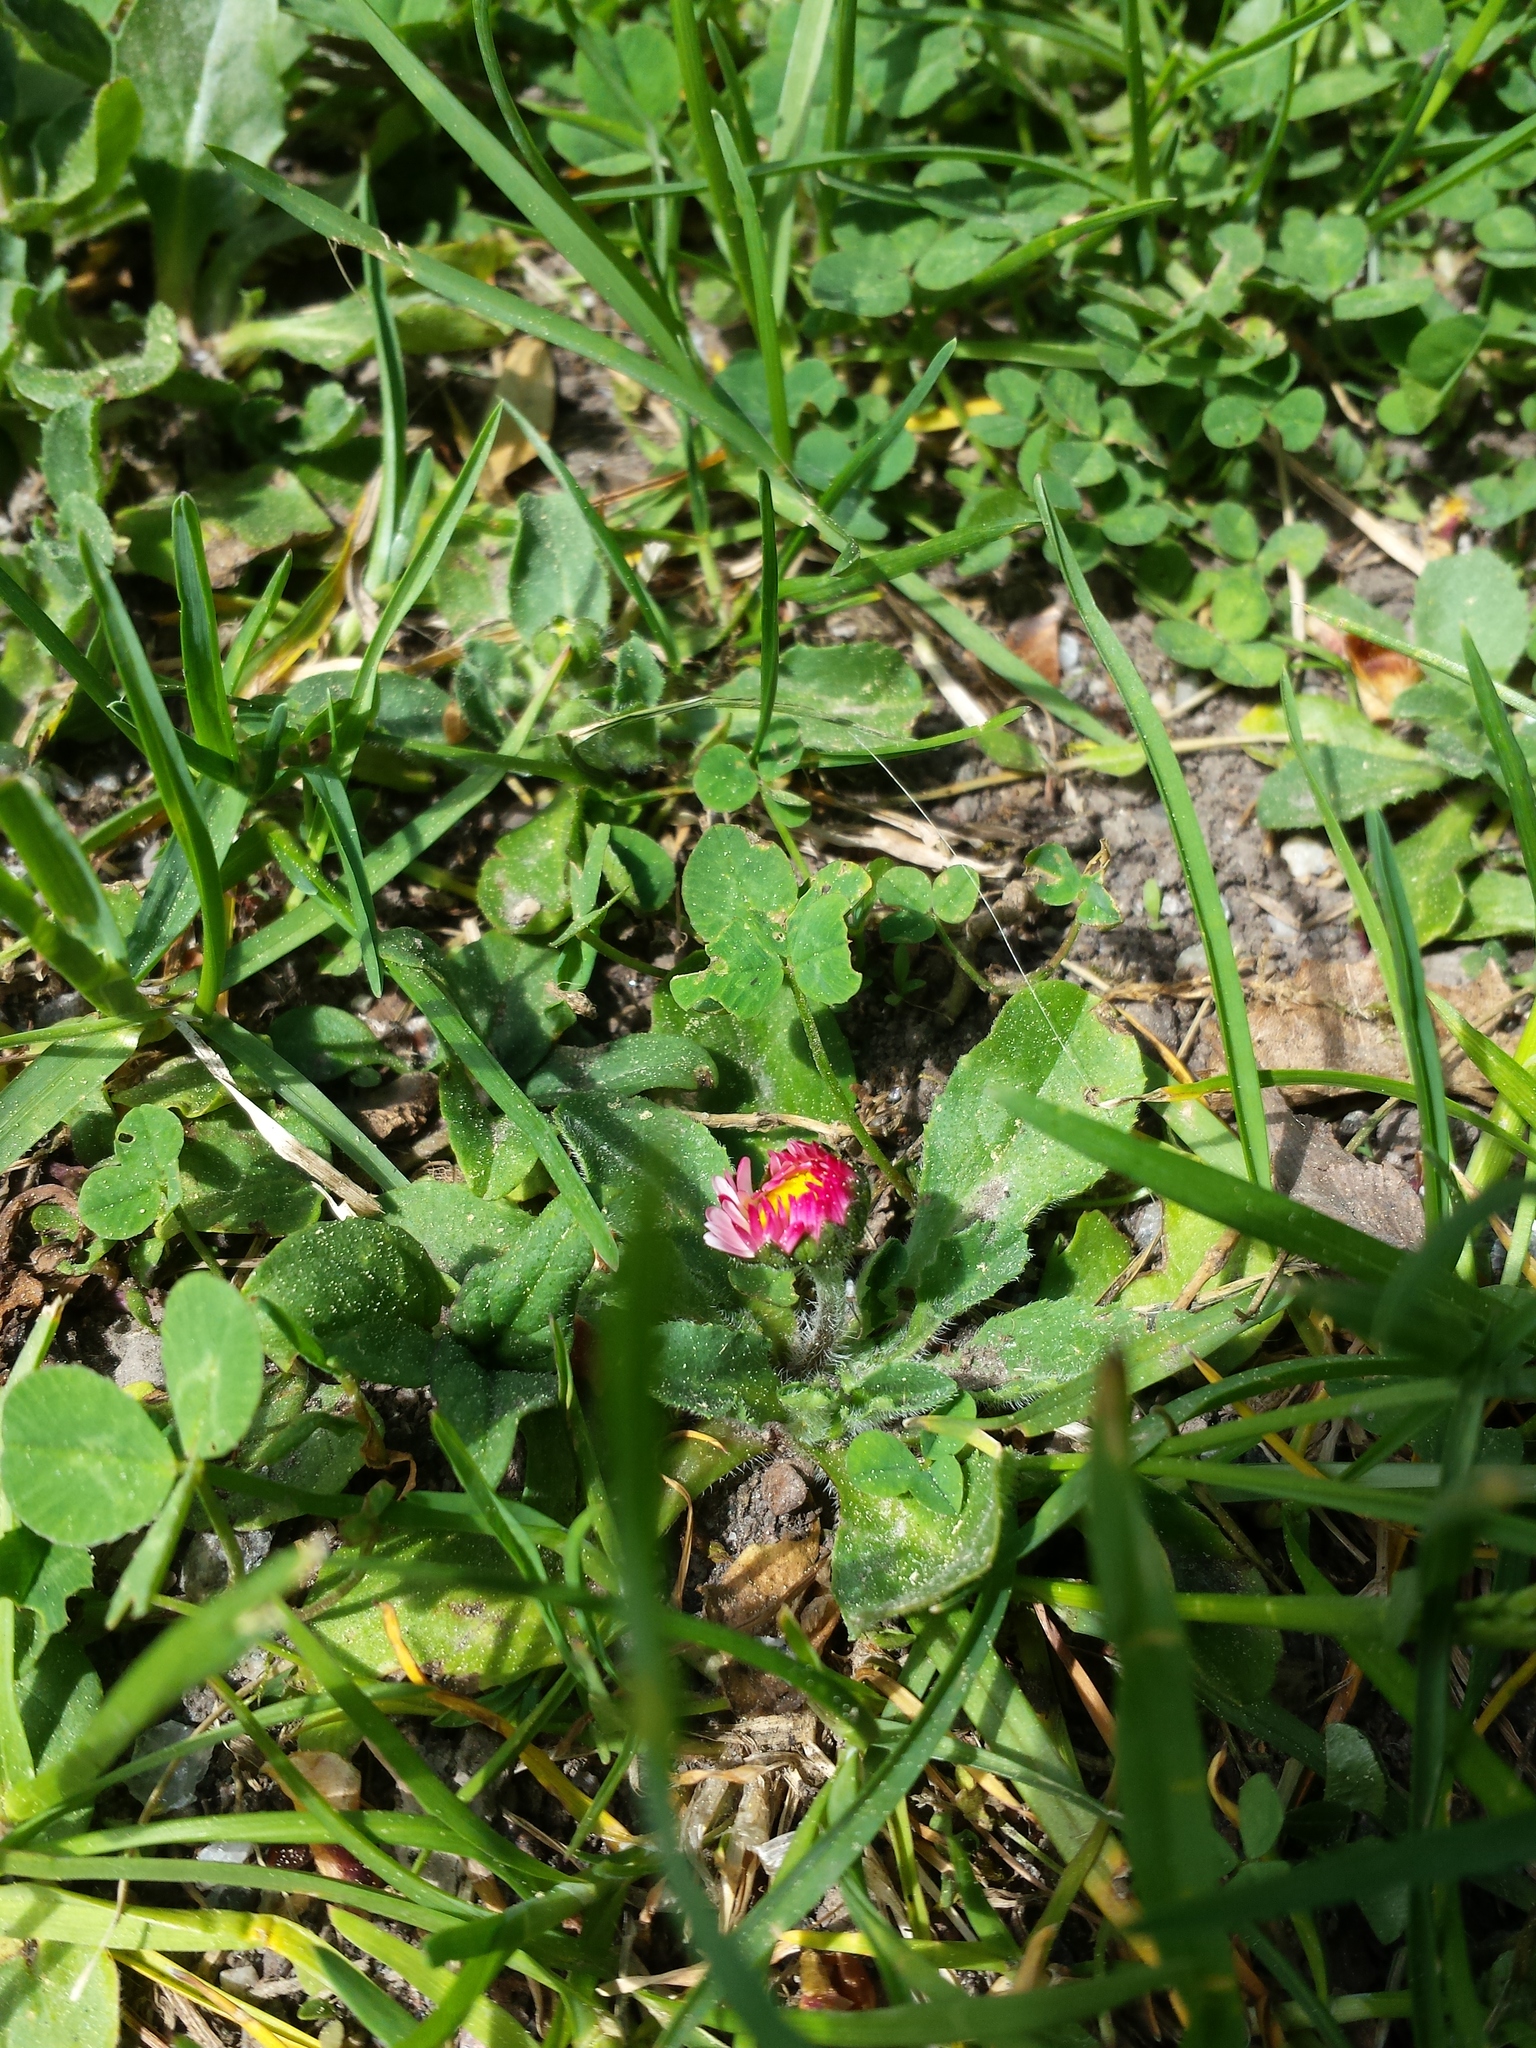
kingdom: Plantae
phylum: Tracheophyta
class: Magnoliopsida
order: Asterales
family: Asteraceae
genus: Bellis
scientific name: Bellis perennis
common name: Lawndaisy
